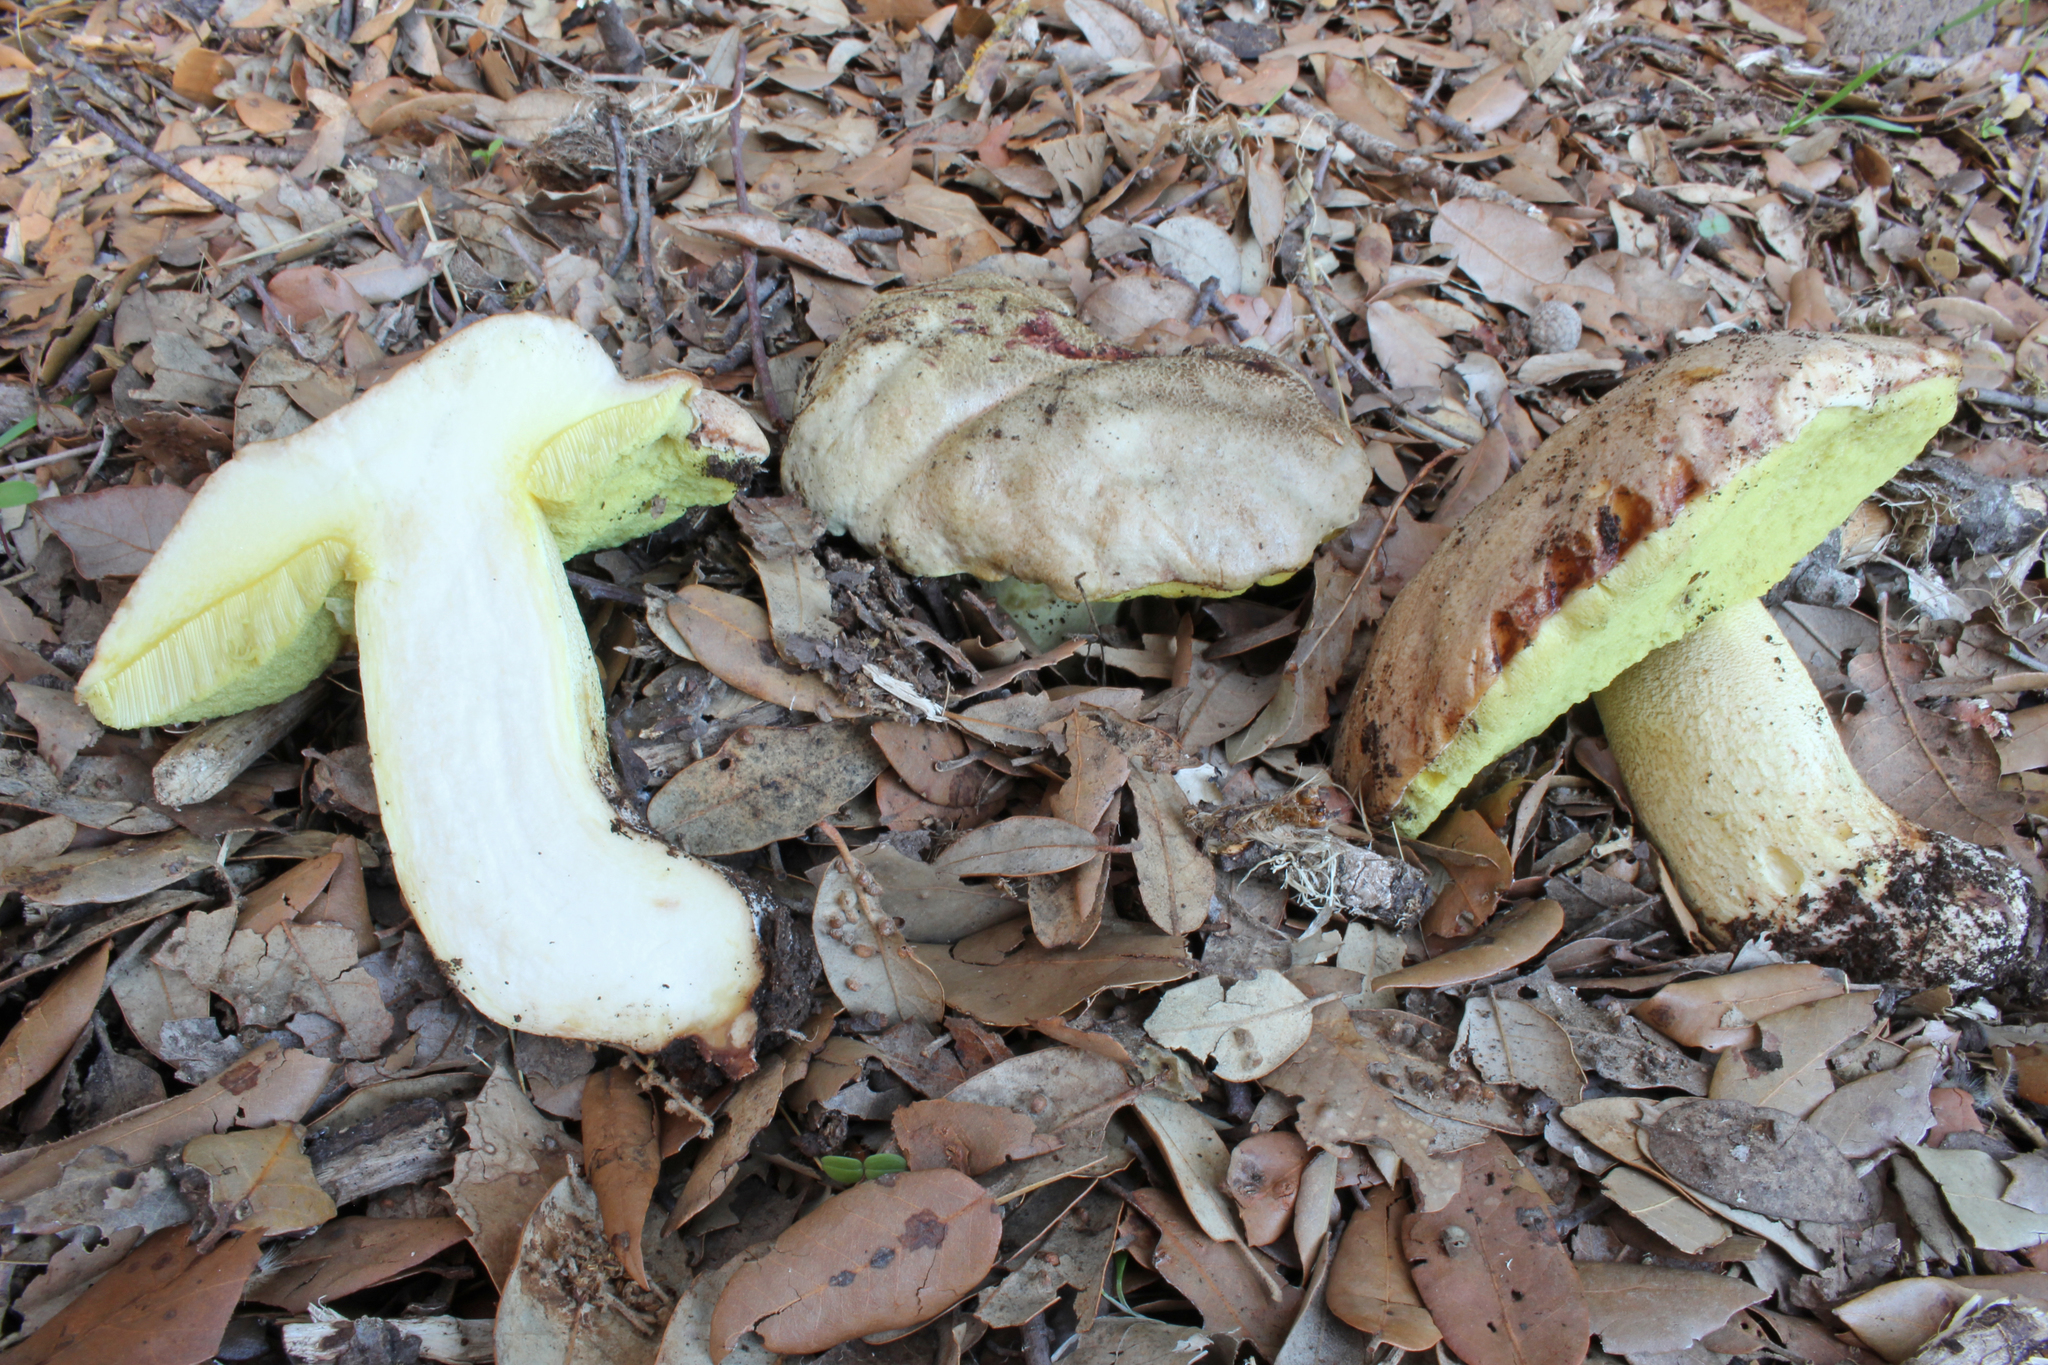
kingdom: Fungi
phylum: Basidiomycota
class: Agaricomycetes
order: Boletales
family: Boletaceae
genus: Hemileccinum
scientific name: Hemileccinum impolitum
